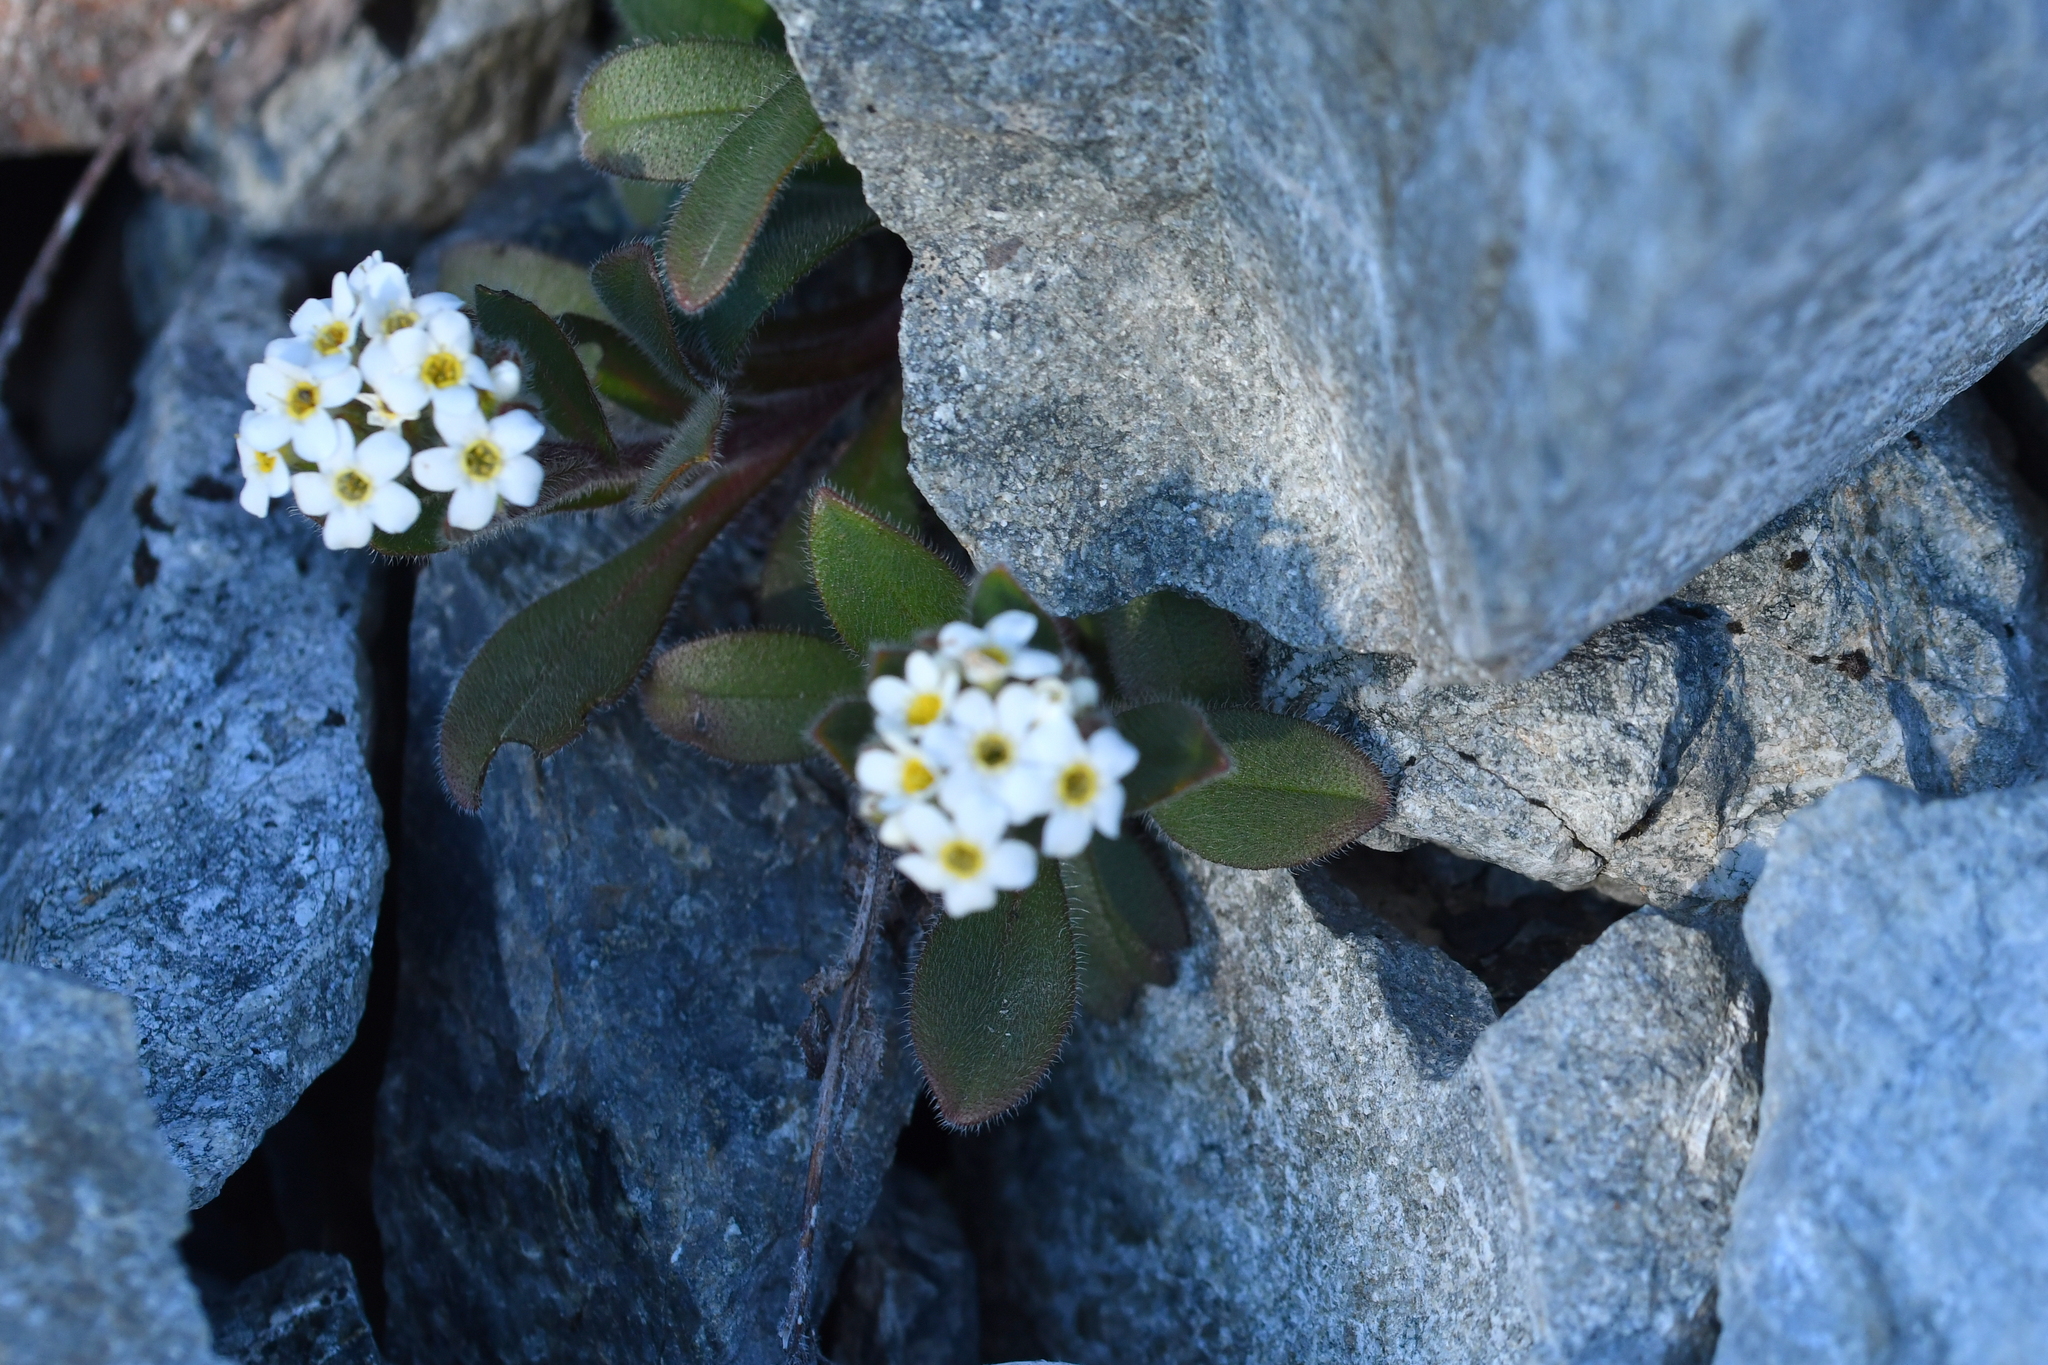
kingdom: Plantae
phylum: Tracheophyta
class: Magnoliopsida
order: Boraginales
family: Boraginaceae
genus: Myosotis
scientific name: Myosotis traversii
